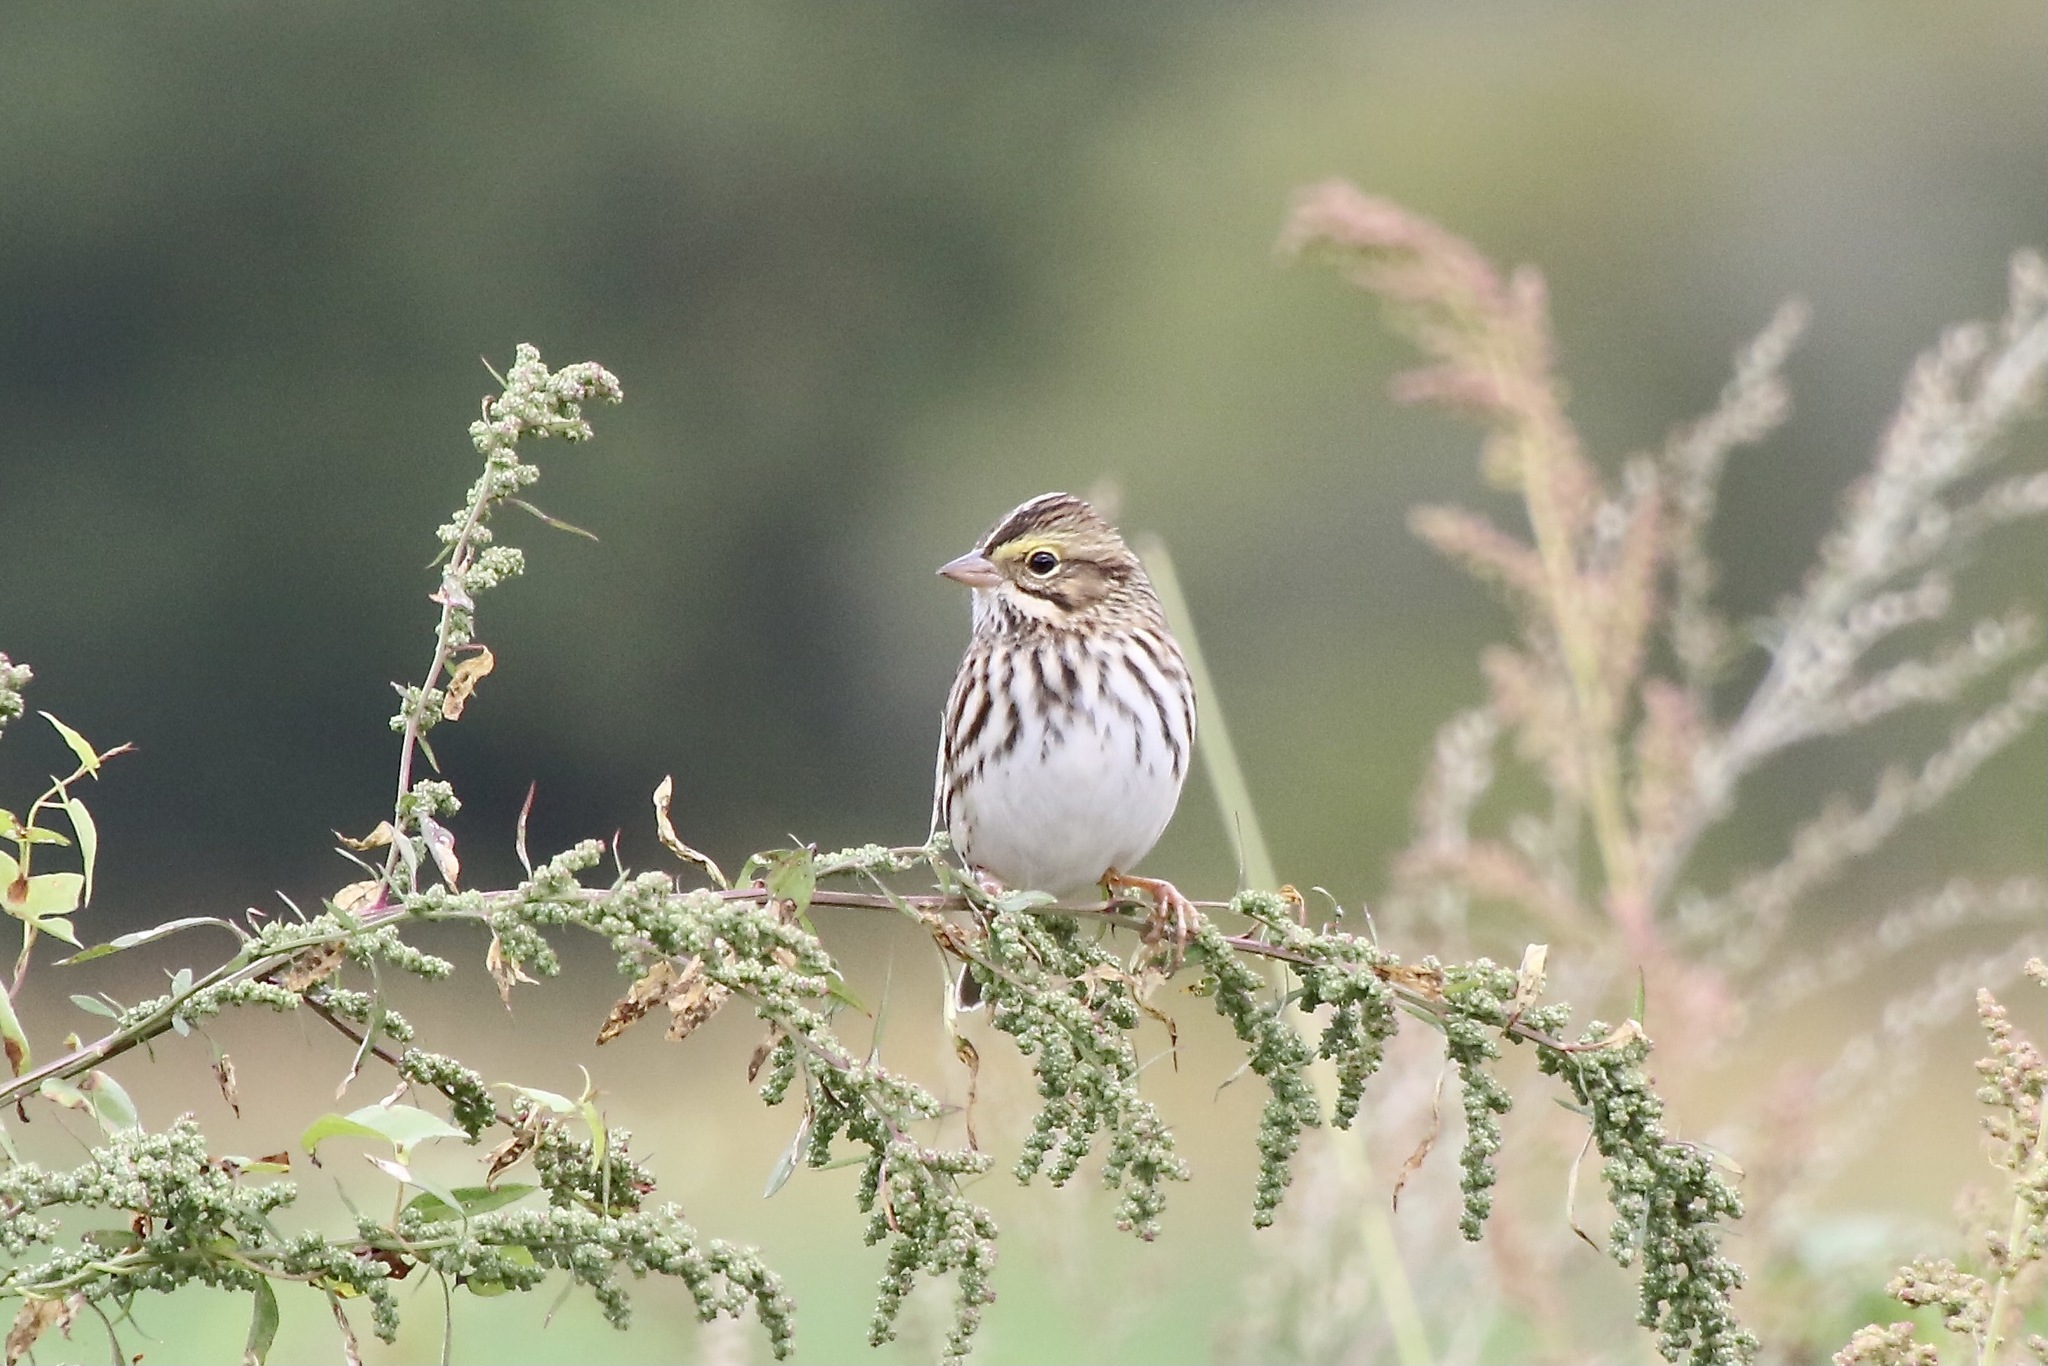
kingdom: Animalia
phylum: Chordata
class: Aves
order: Passeriformes
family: Passerellidae
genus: Passerculus
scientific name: Passerculus sandwichensis
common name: Savannah sparrow
